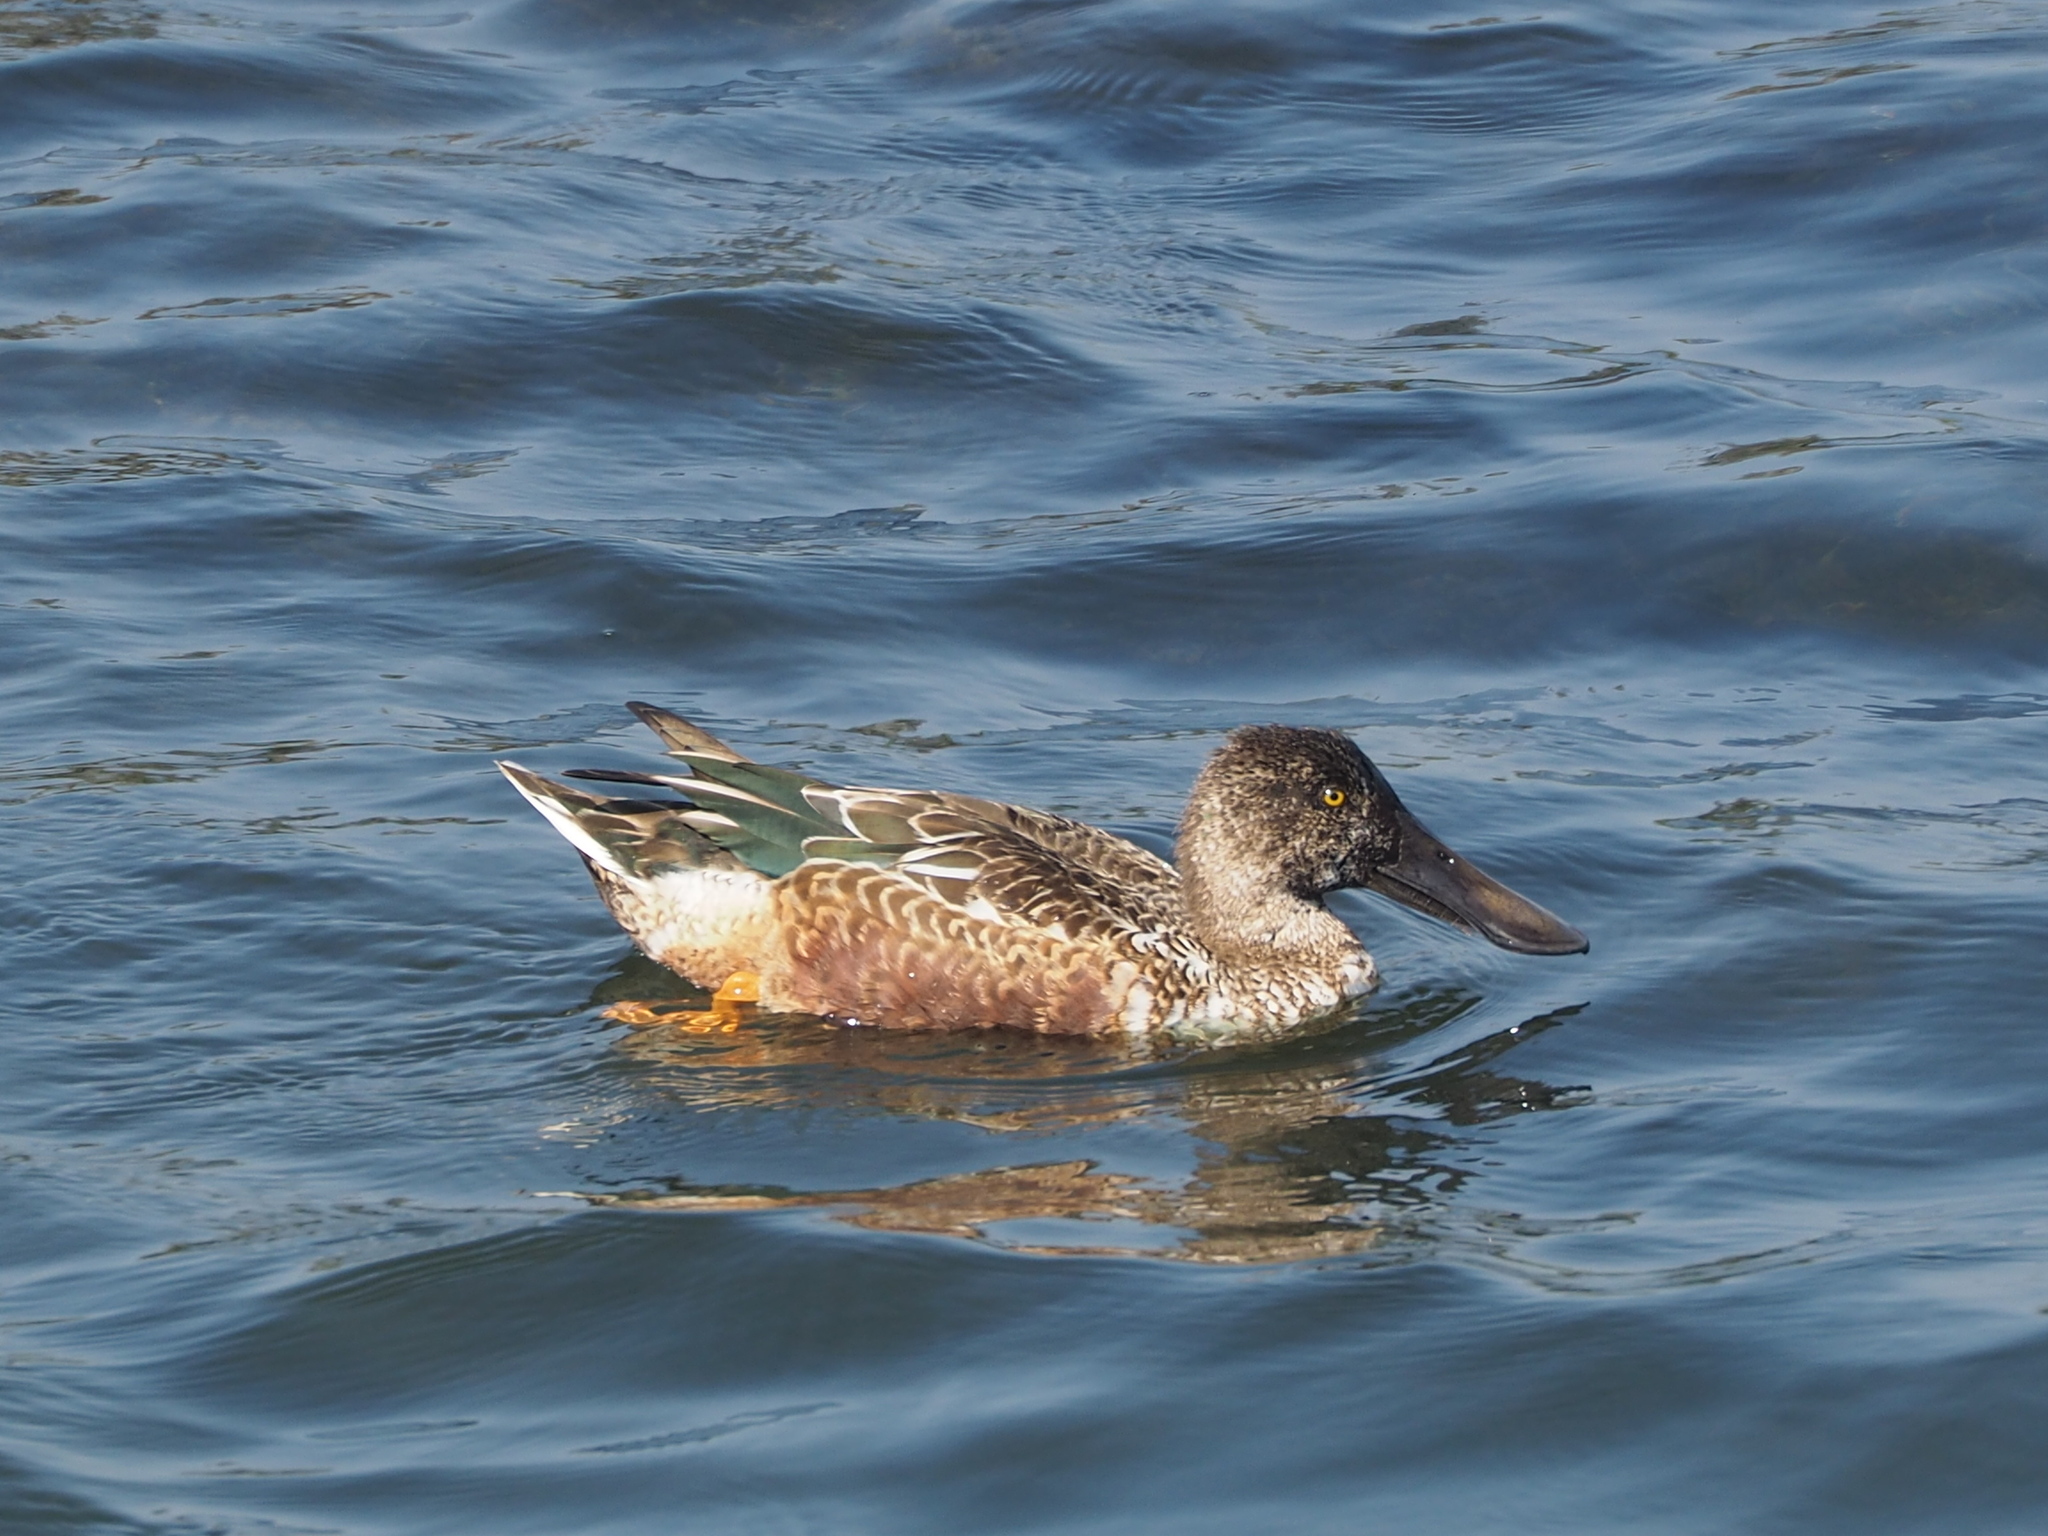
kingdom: Animalia
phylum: Chordata
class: Aves
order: Anseriformes
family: Anatidae
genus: Spatula
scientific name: Spatula clypeata
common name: Northern shoveler
